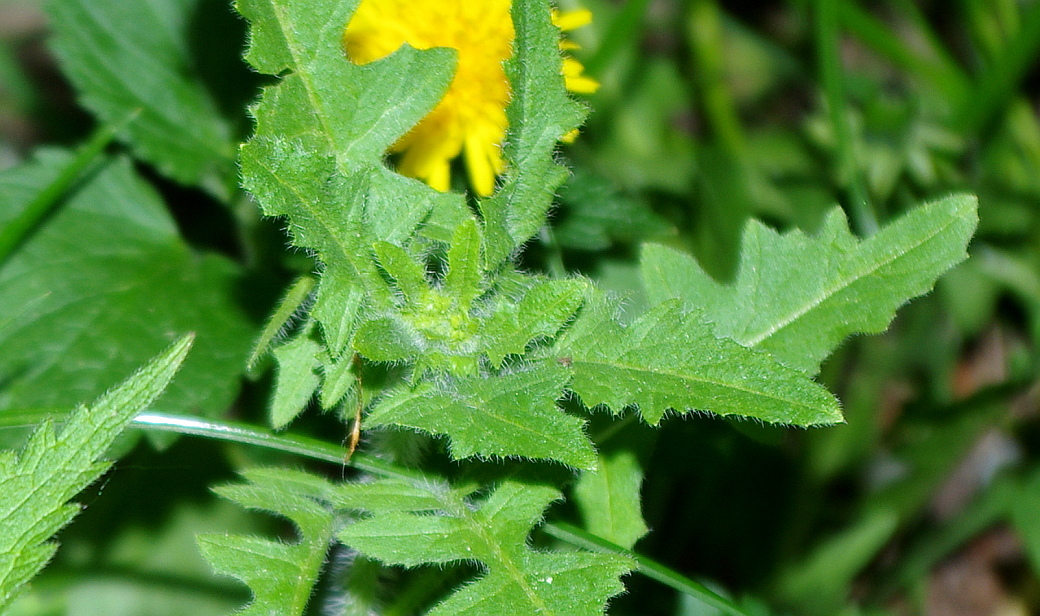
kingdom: Plantae
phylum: Tracheophyta
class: Magnoliopsida
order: Brassicales
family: Brassicaceae
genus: Sisymbrium
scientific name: Sisymbrium loeselii
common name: False london-rocket
